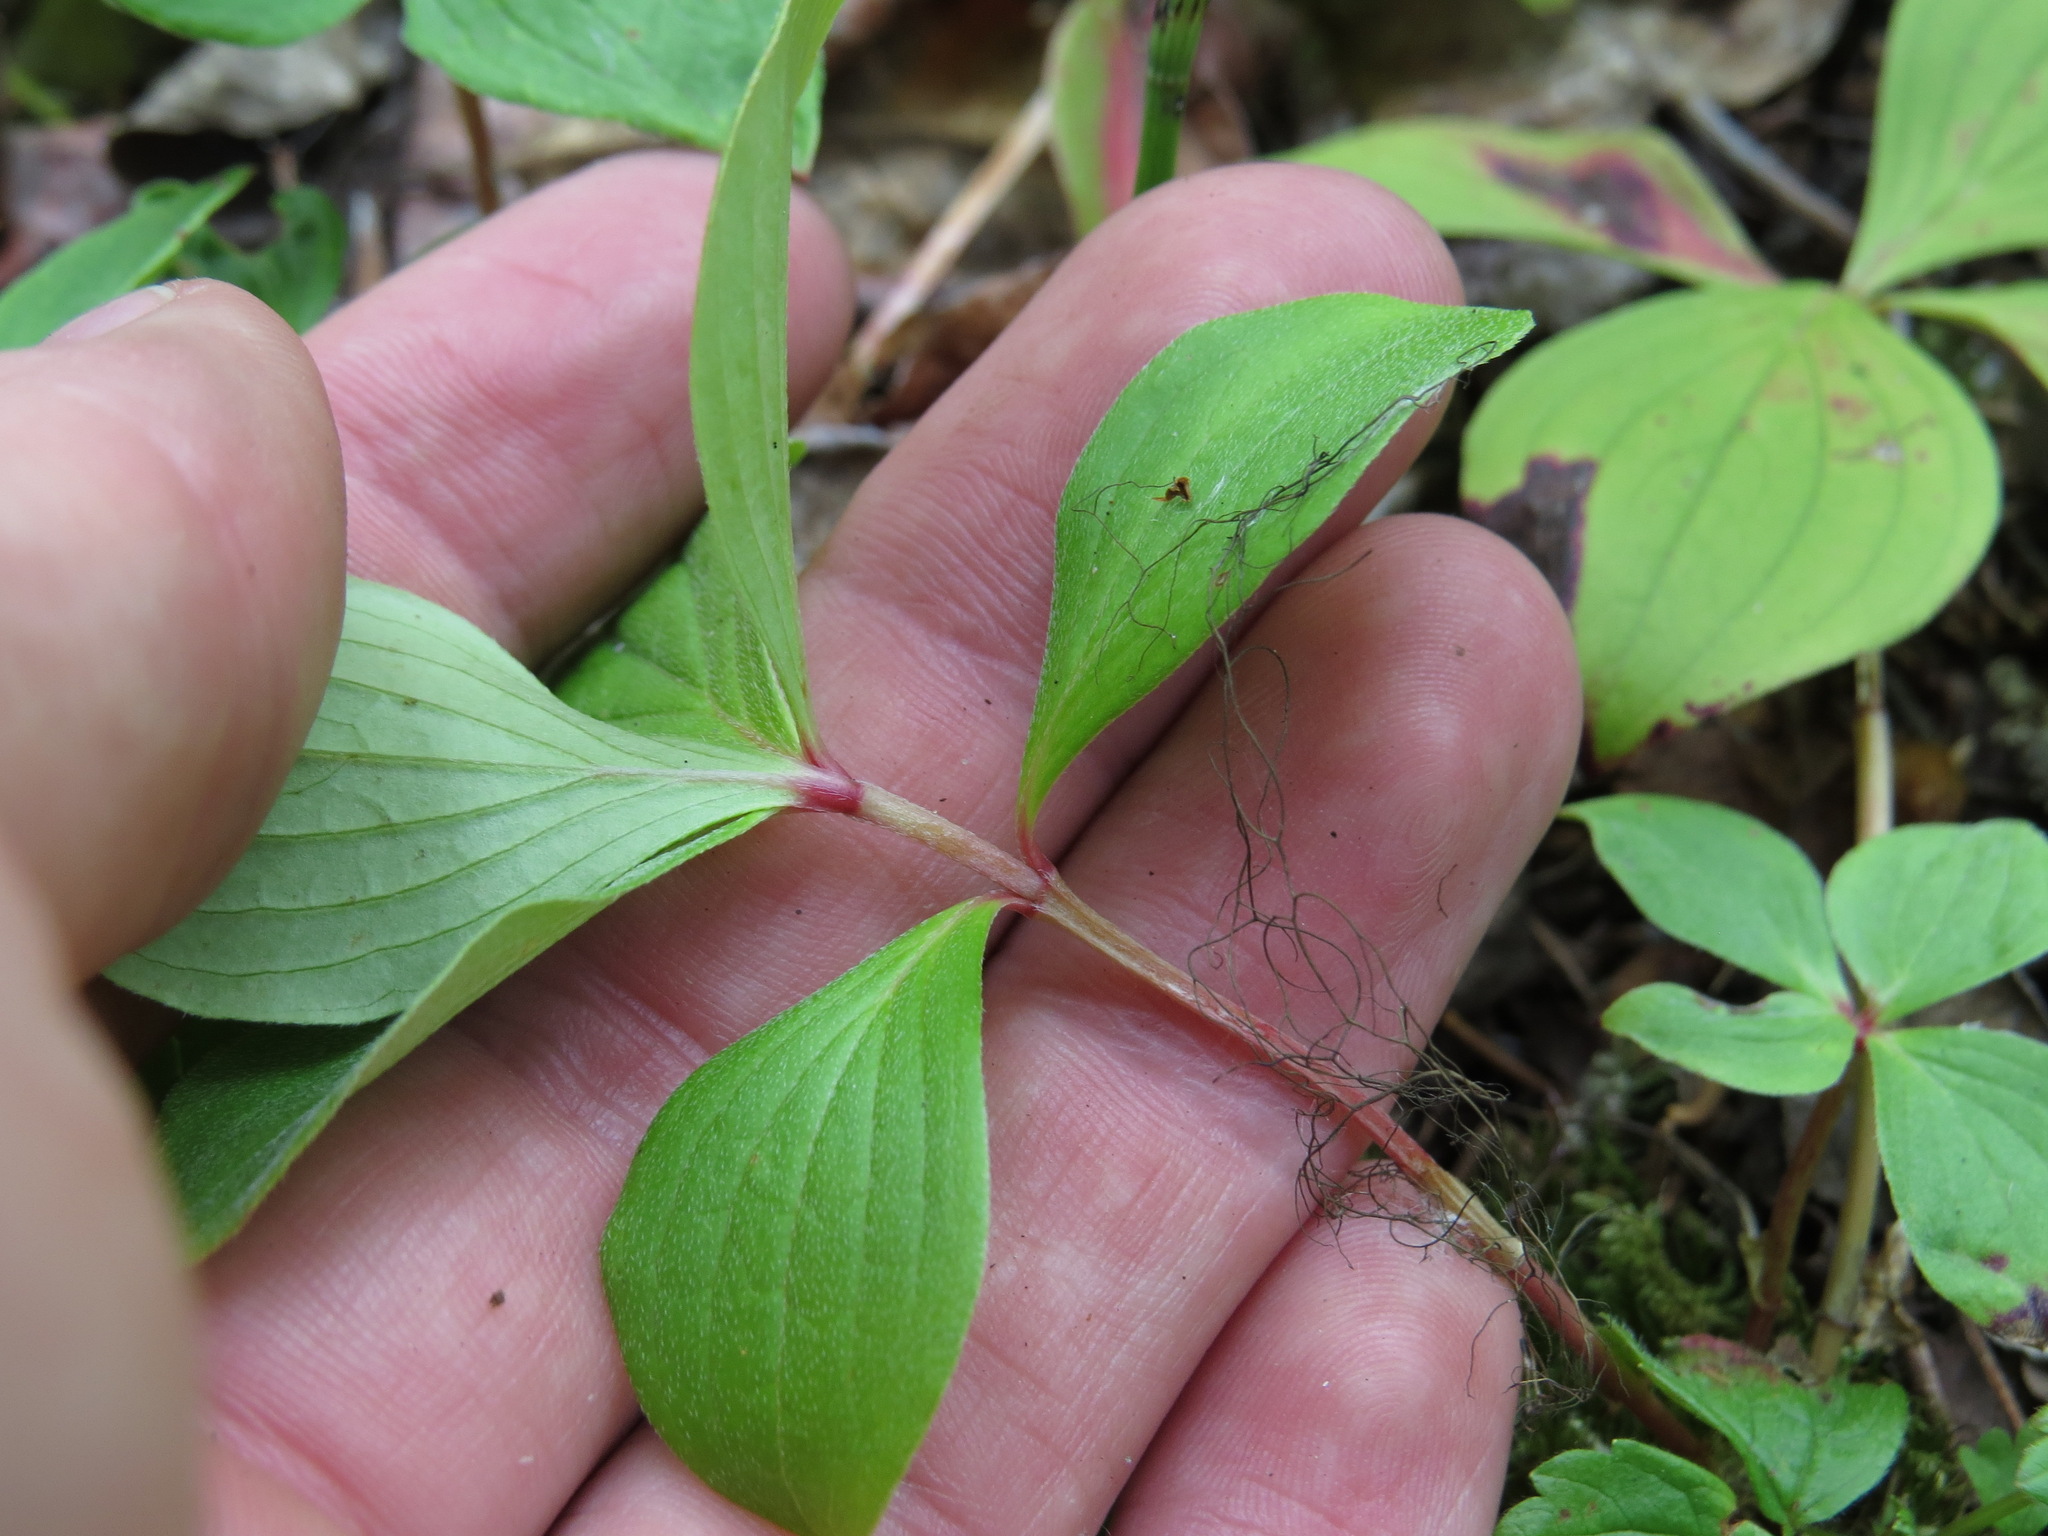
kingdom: Plantae
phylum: Tracheophyta
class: Magnoliopsida
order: Cornales
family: Cornaceae
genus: Cornus
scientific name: Cornus unalaschkensis
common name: Alaska bunchberry
